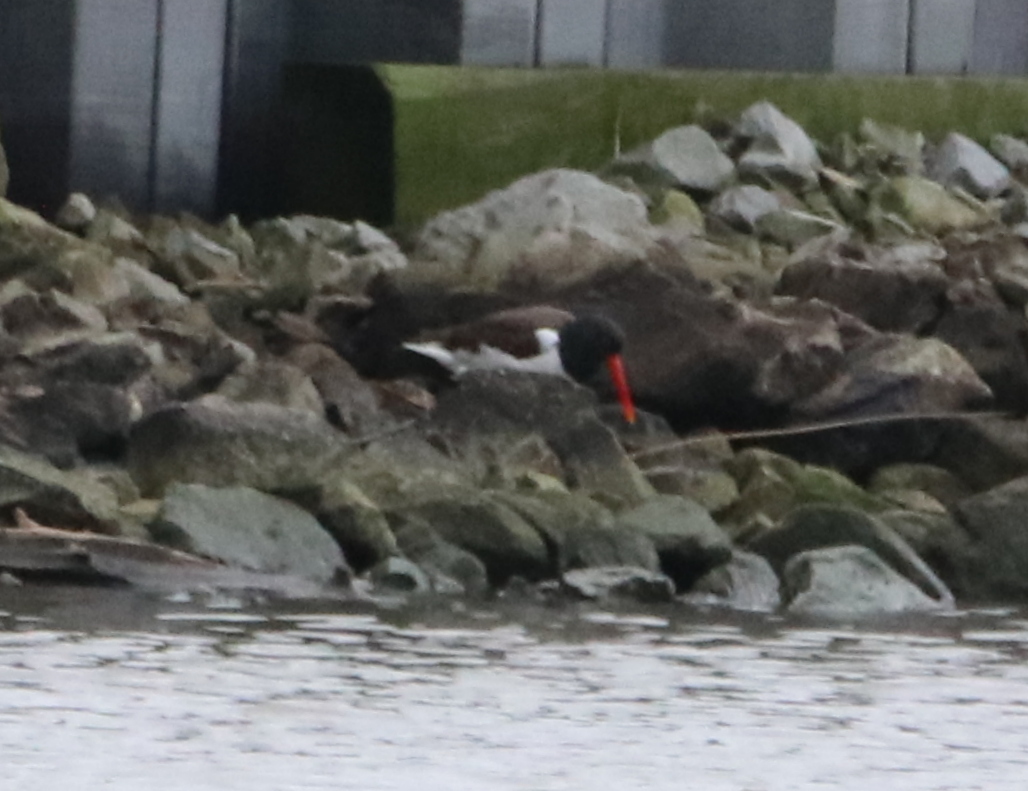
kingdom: Animalia
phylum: Chordata
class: Aves
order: Charadriiformes
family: Haematopodidae
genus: Haematopus
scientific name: Haematopus palliatus
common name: American oystercatcher
